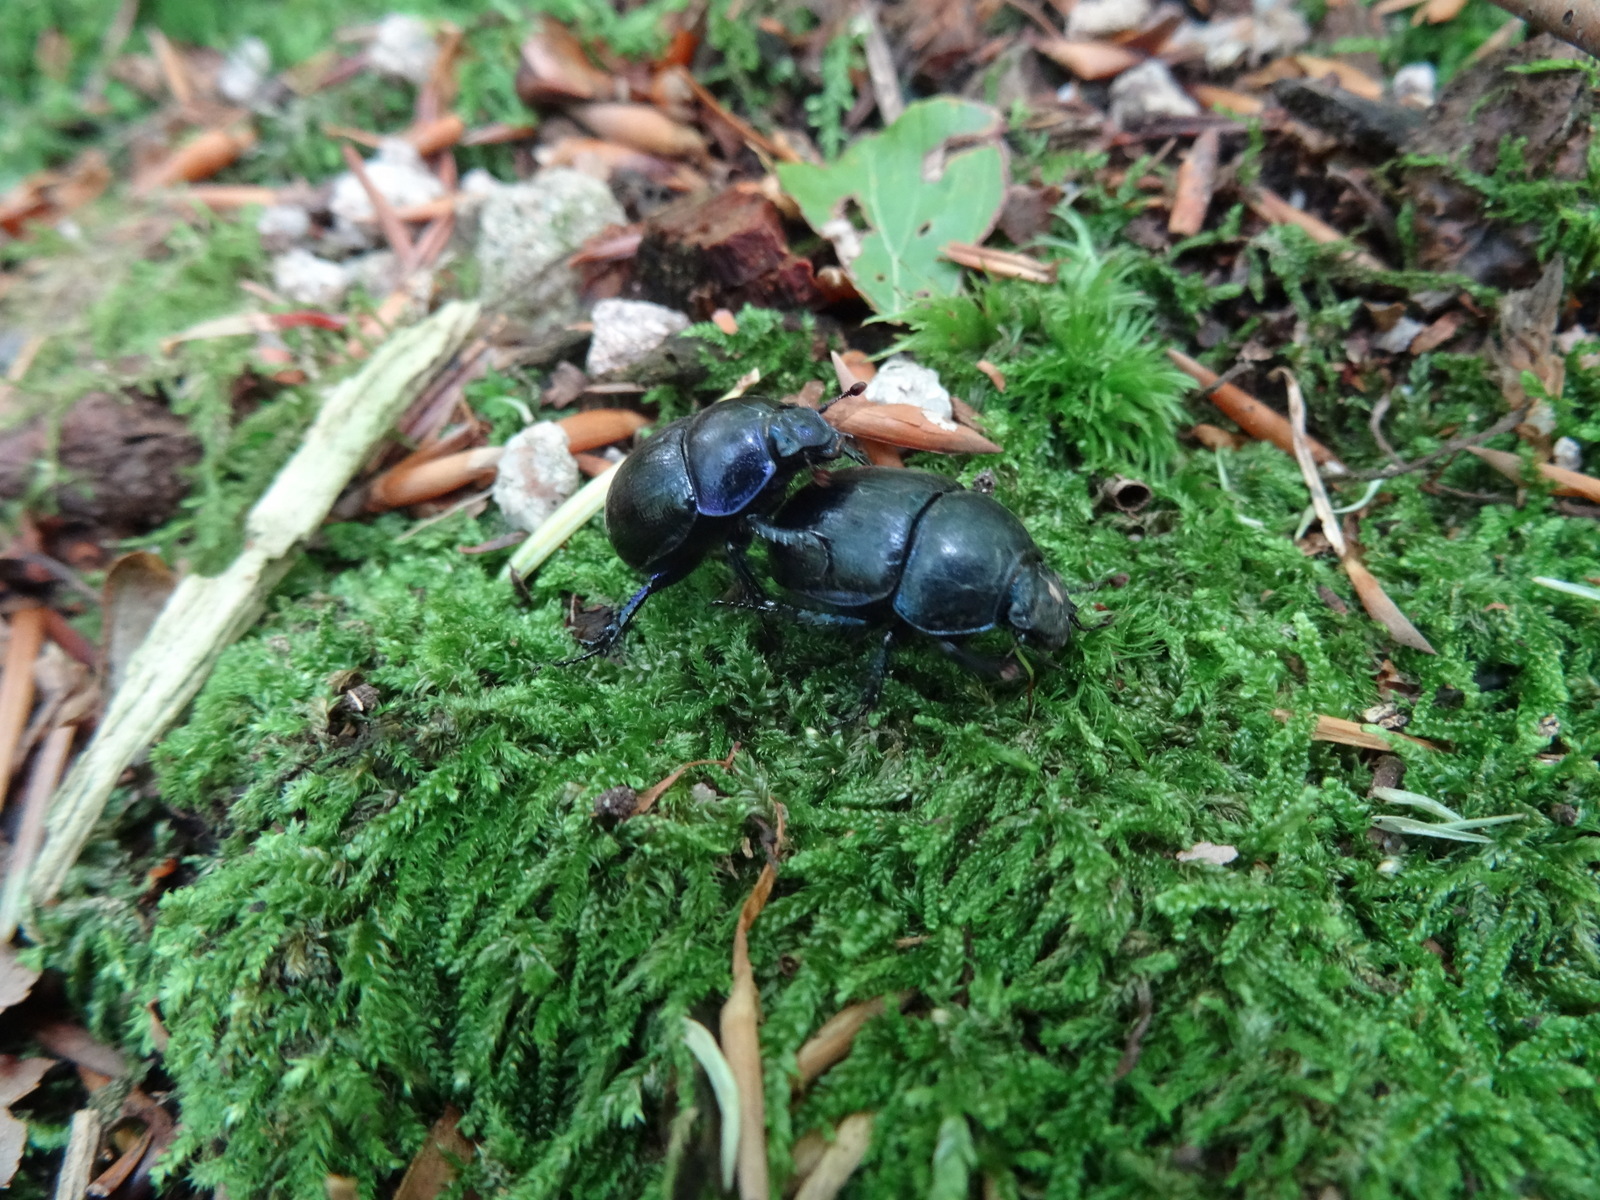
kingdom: Animalia
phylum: Arthropoda
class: Insecta
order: Coleoptera
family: Geotrupidae
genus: Anoplotrupes
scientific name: Anoplotrupes stercorosus
